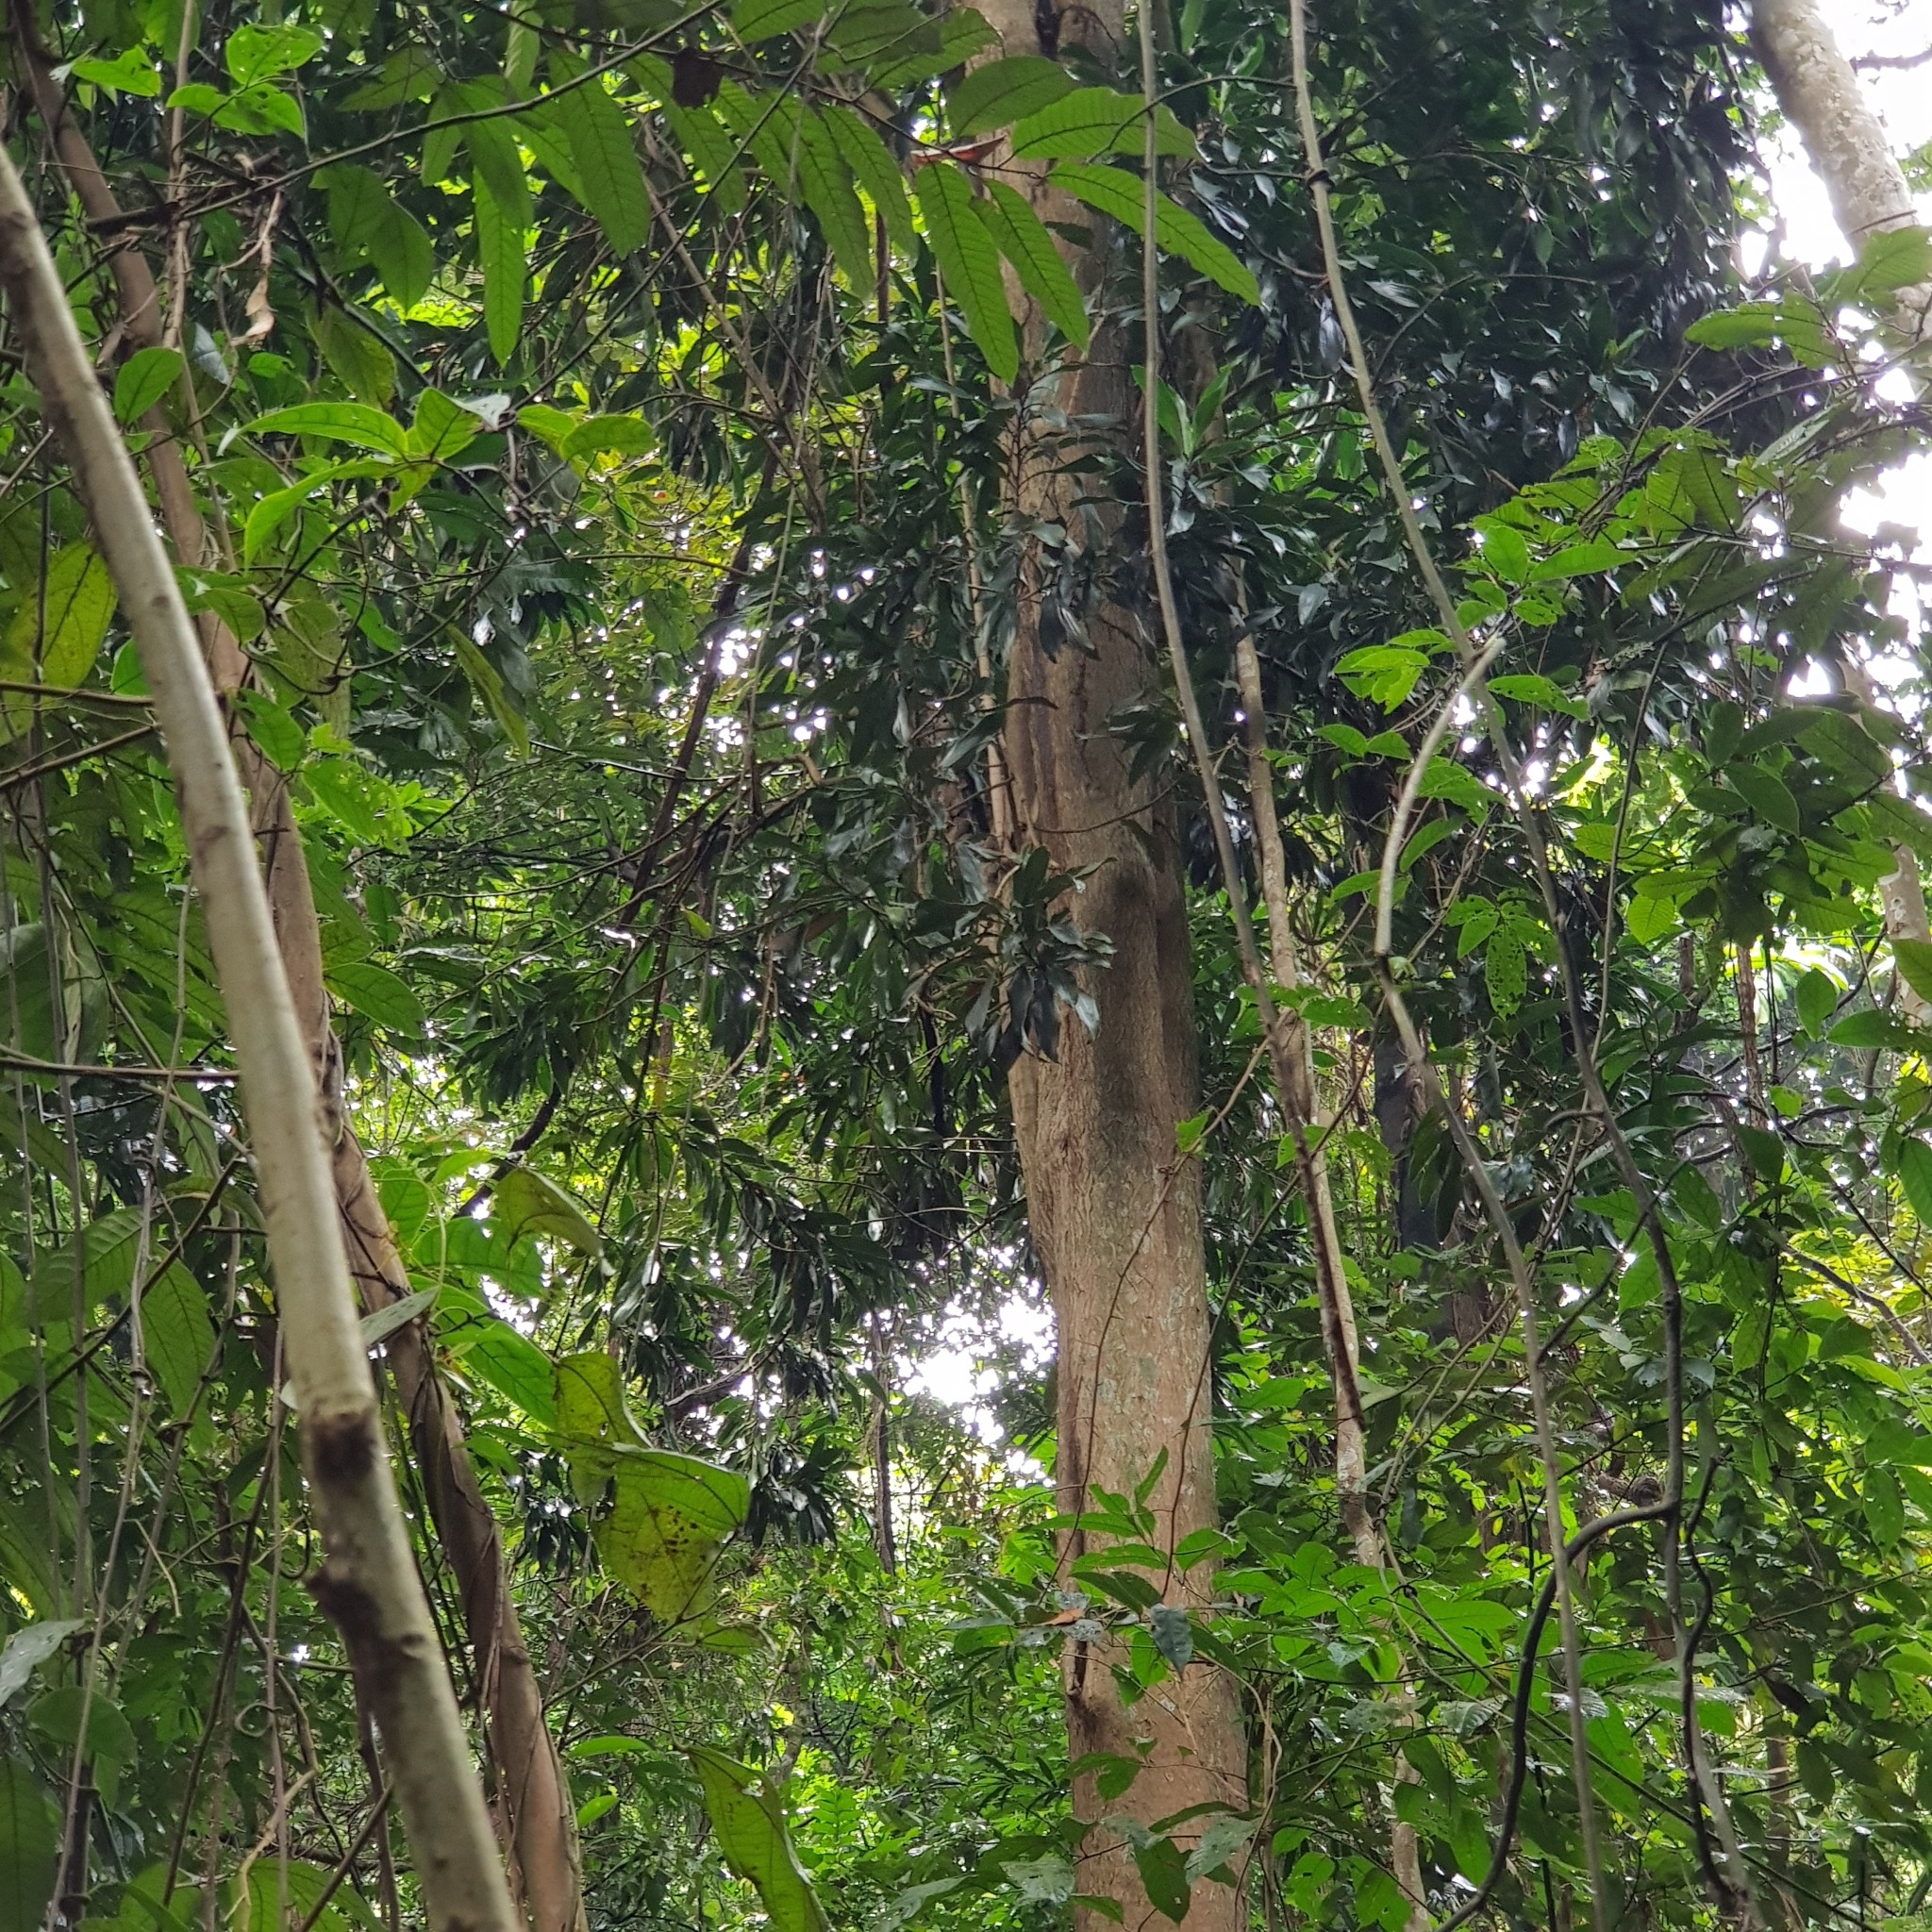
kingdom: Plantae
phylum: Tracheophyta
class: Liliopsida
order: Asparagales
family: Asparagaceae
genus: Dracaena
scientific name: Dracaena maingayi
